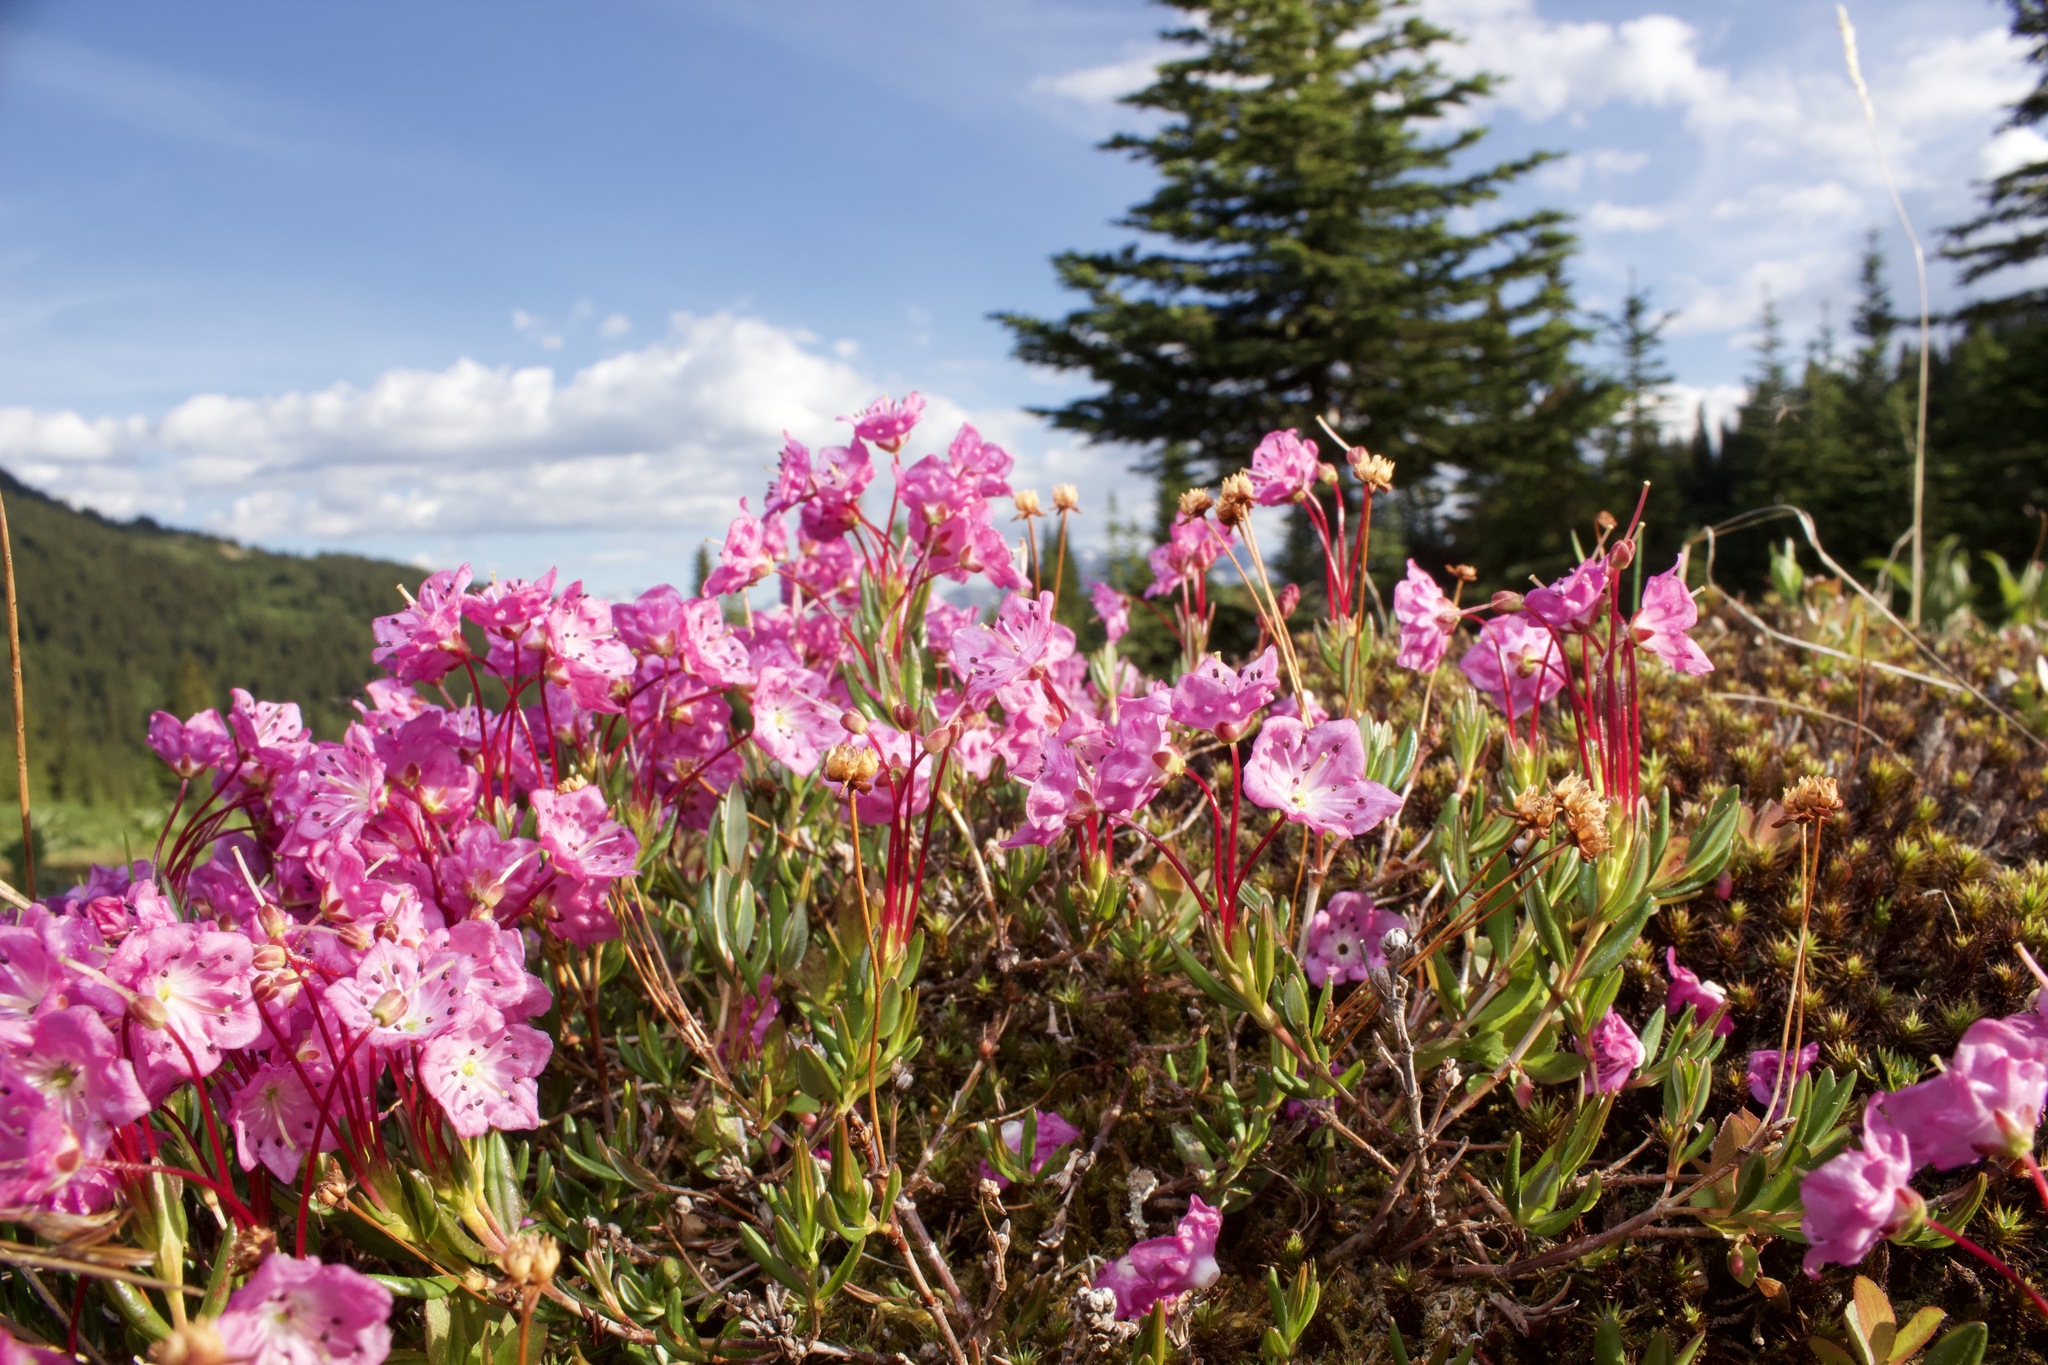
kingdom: Plantae
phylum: Tracheophyta
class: Magnoliopsida
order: Ericales
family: Ericaceae
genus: Kalmia
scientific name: Kalmia microphylla
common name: Alpine bog laurel
